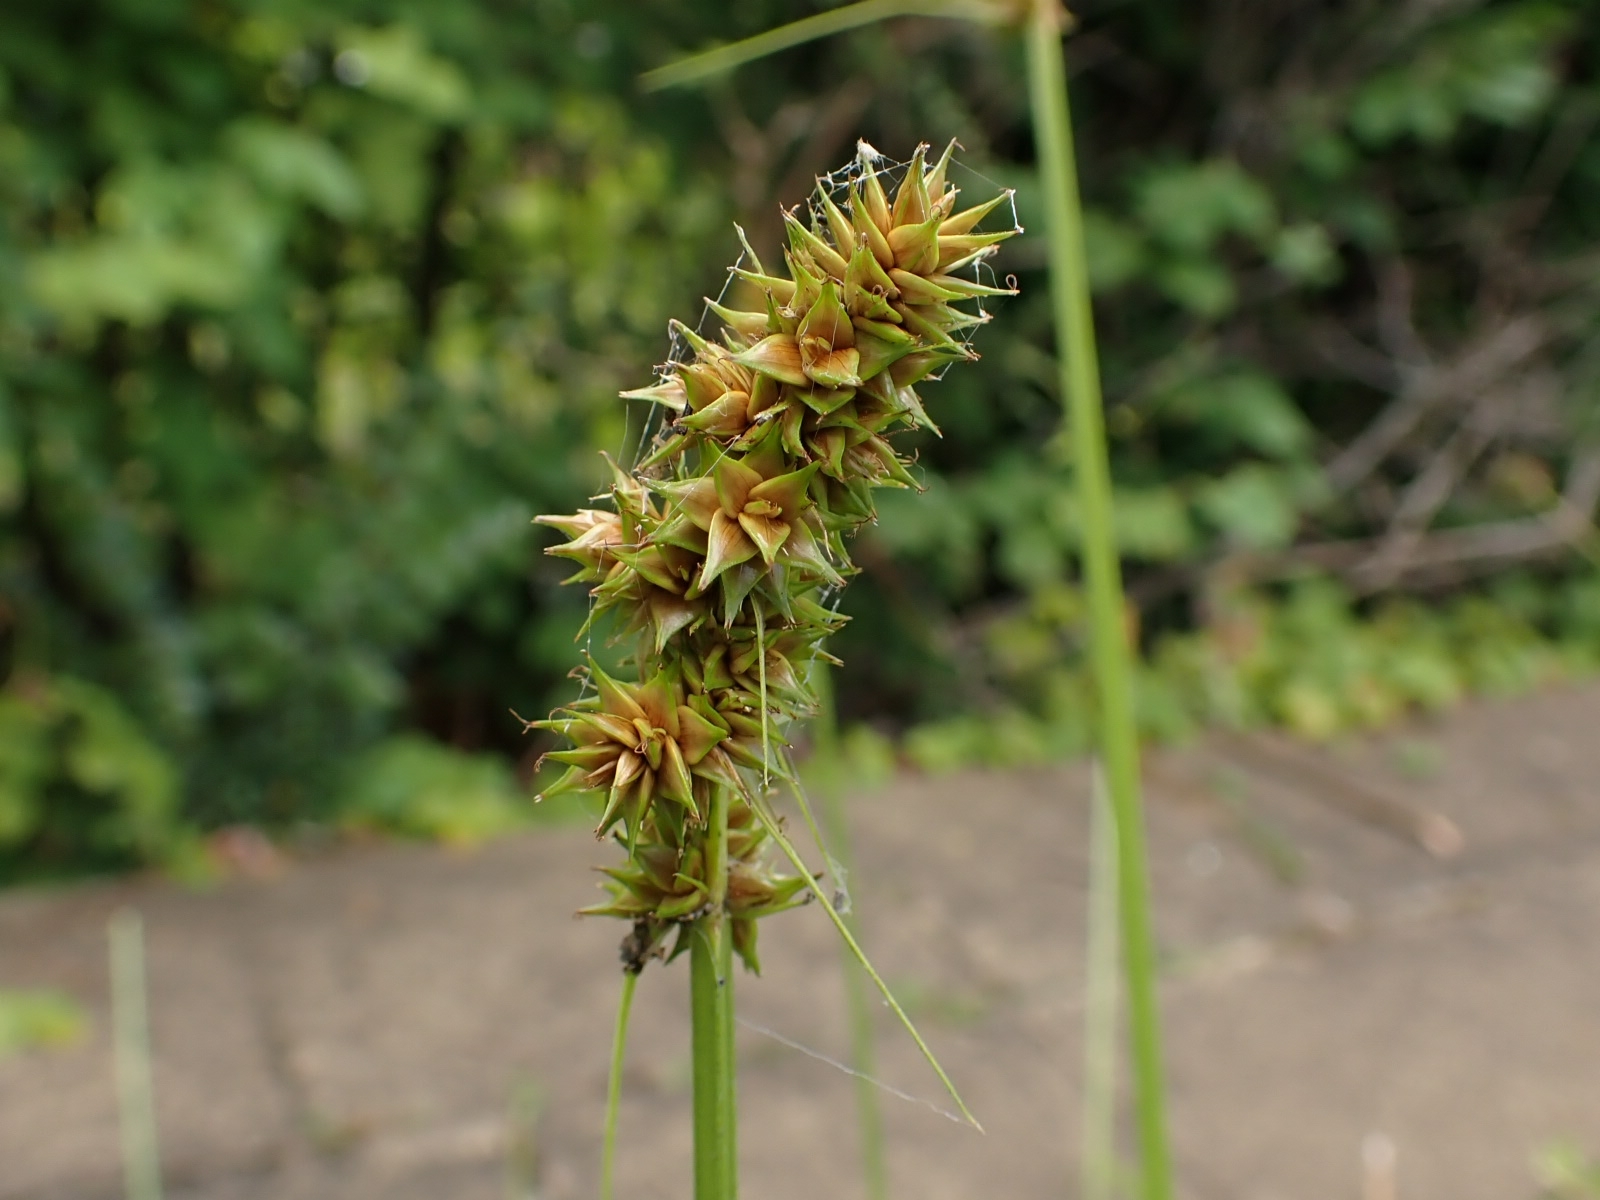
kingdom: Plantae
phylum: Tracheophyta
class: Liliopsida
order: Poales
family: Cyperaceae
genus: Carex
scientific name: Carex otrubae
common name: False fox-sedge
